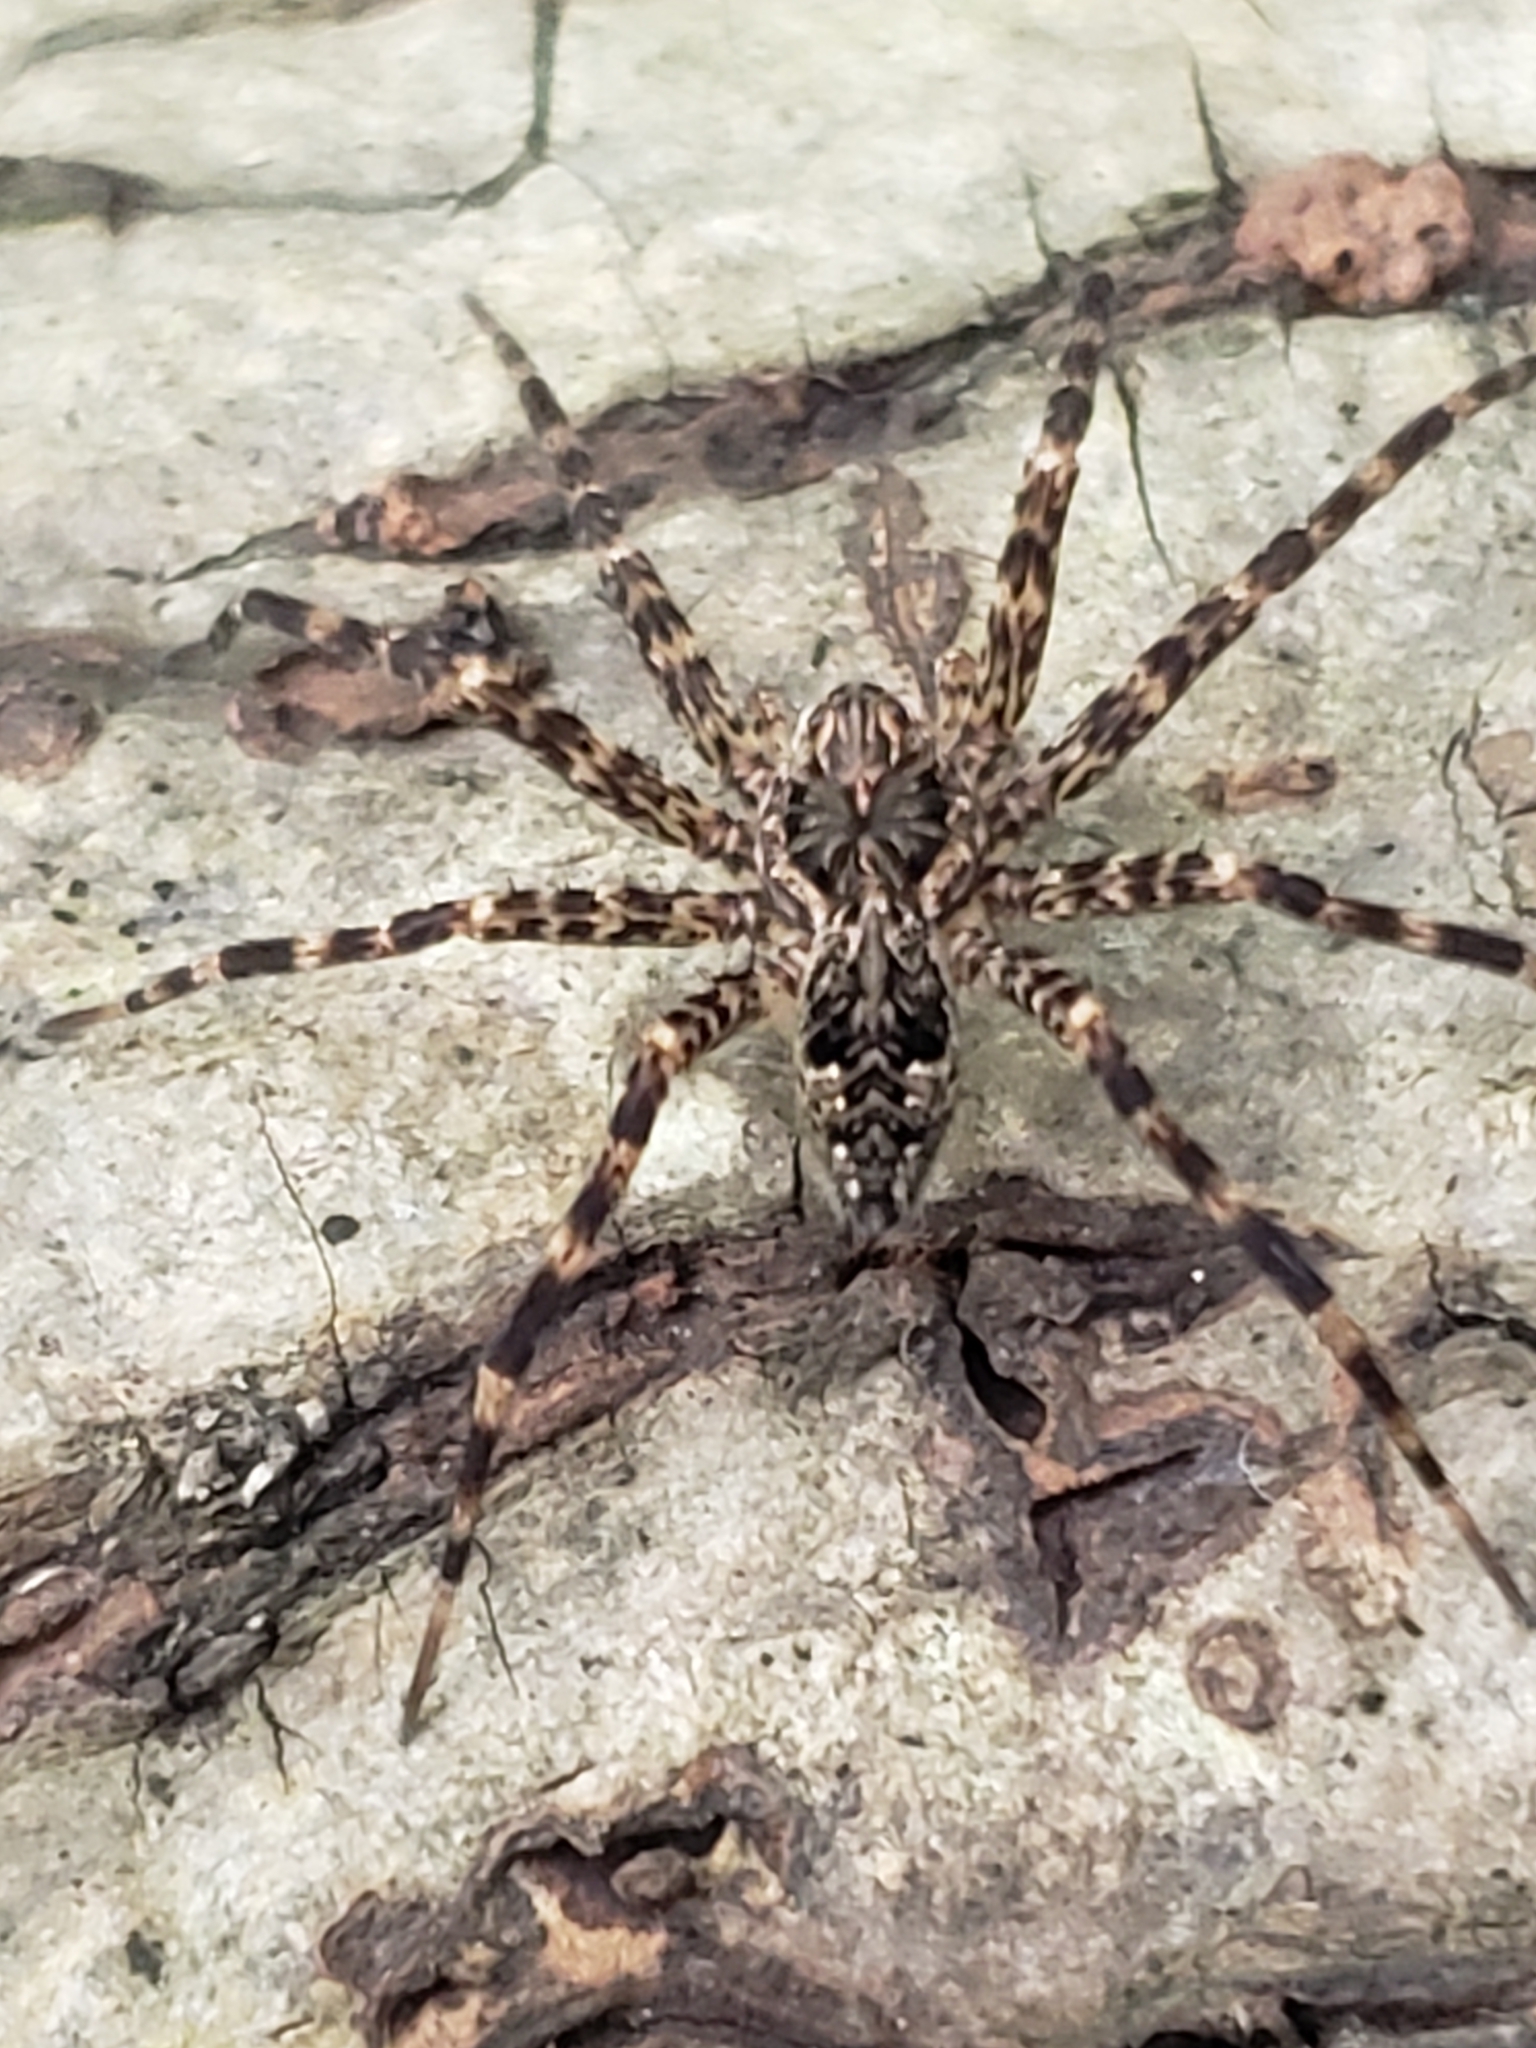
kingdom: Animalia
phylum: Arthropoda
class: Arachnida
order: Araneae
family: Pisauridae
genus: Dolomedes
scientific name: Dolomedes tenebrosus
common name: Dark fishing spider
